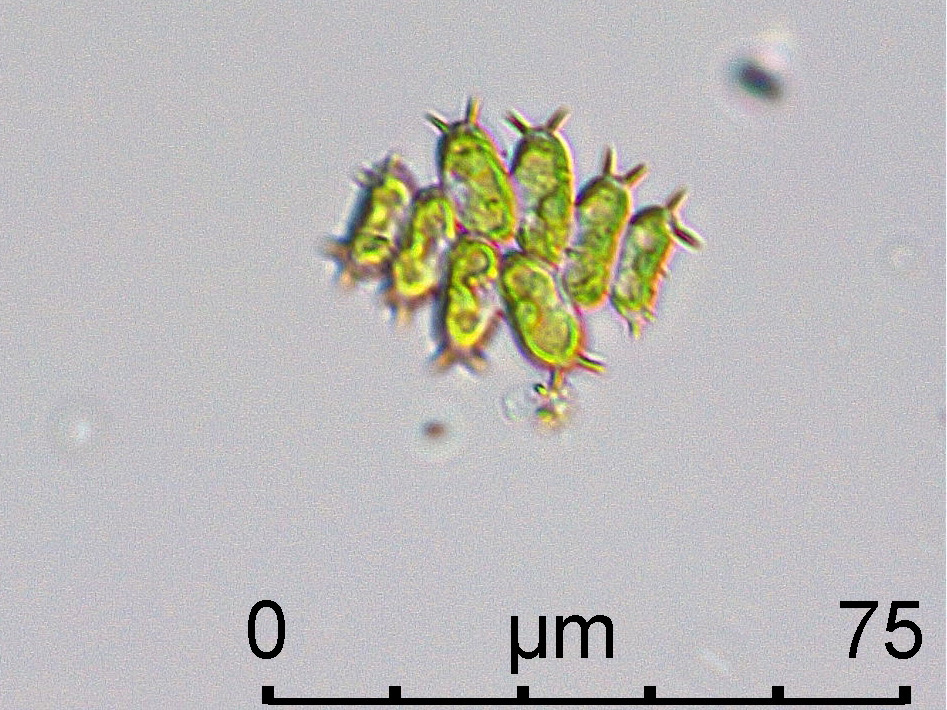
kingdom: Plantae
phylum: Chlorophyta
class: Chlorophyceae
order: Sphaeropleales
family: Scenedesmaceae
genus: Desmodesmus
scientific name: Desmodesmus denticulatus
